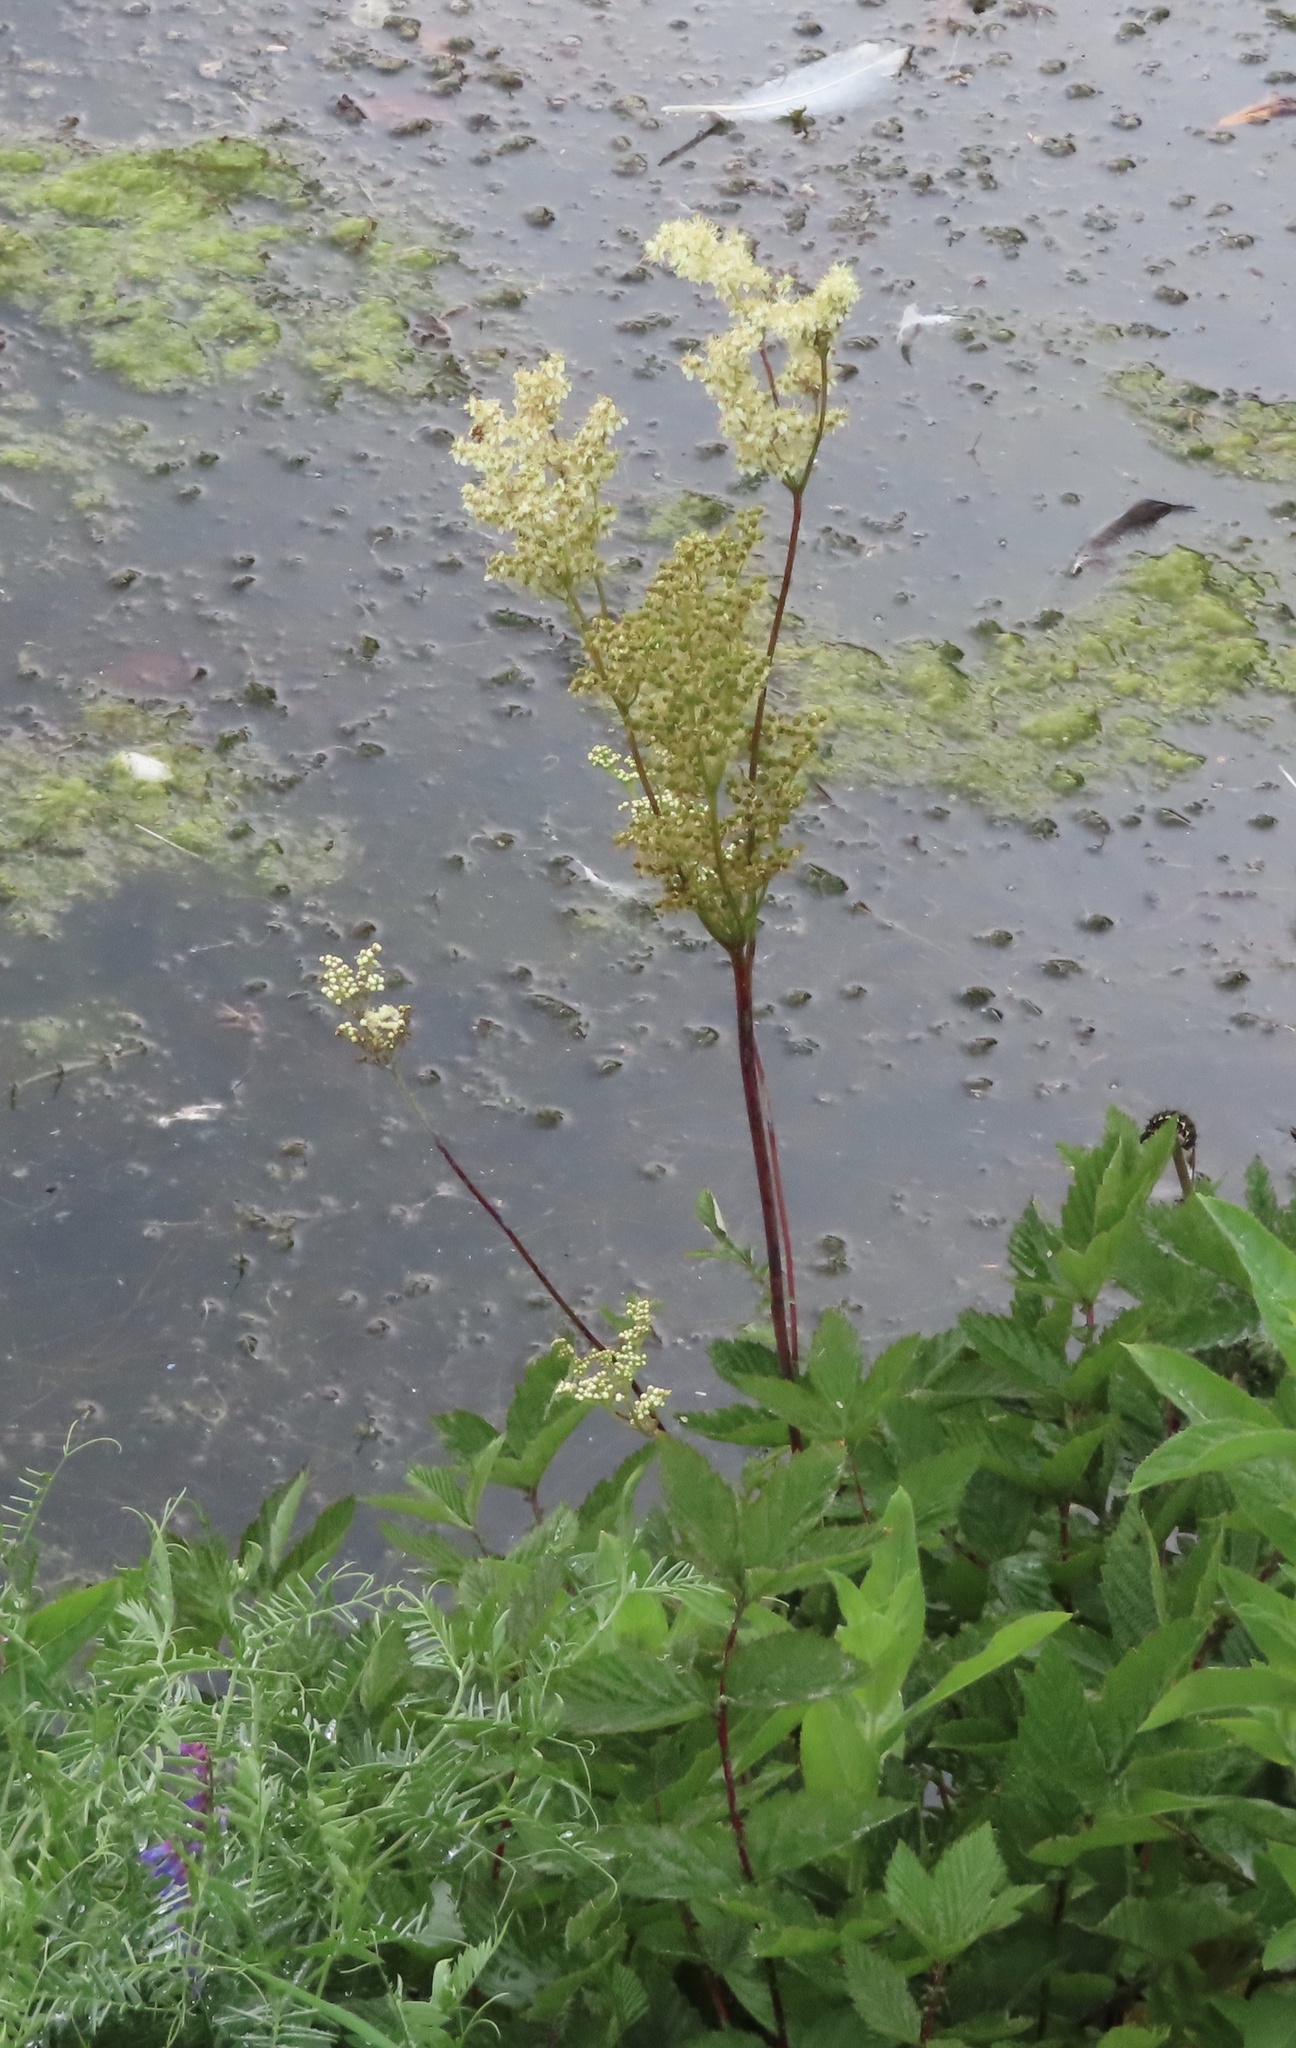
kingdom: Plantae
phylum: Tracheophyta
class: Magnoliopsida
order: Rosales
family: Rosaceae
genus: Filipendula
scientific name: Filipendula ulmaria
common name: Meadowsweet
